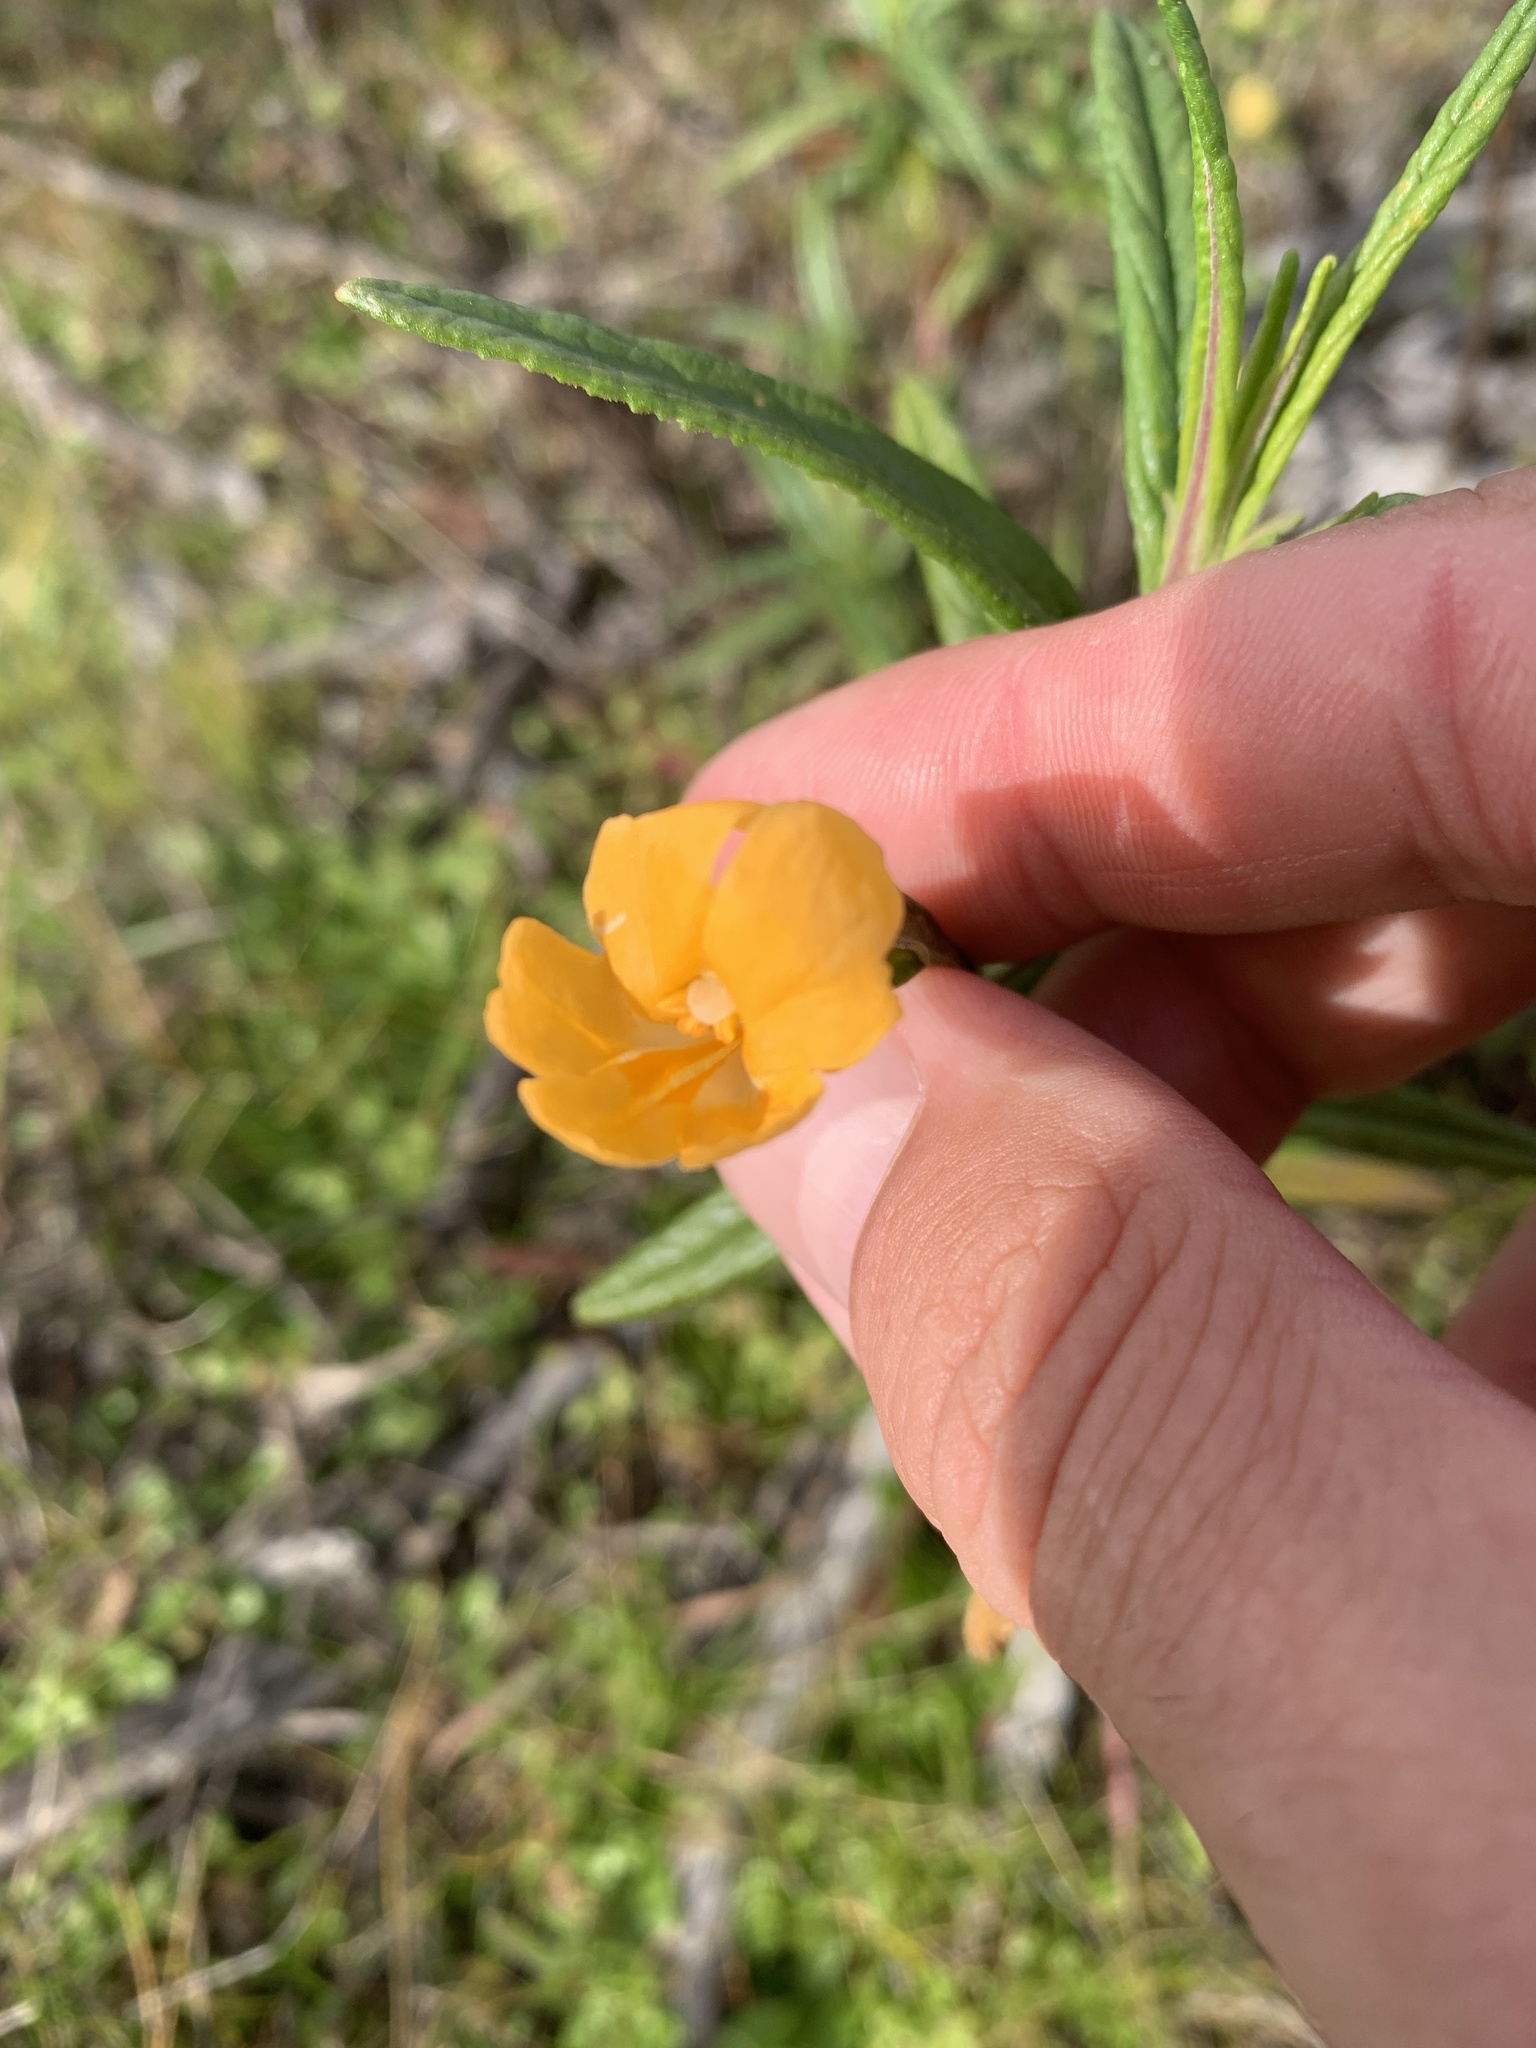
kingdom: Plantae
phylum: Tracheophyta
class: Magnoliopsida
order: Lamiales
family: Phrymaceae
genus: Diplacus
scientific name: Diplacus aurantiacus
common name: Bush monkey-flower
